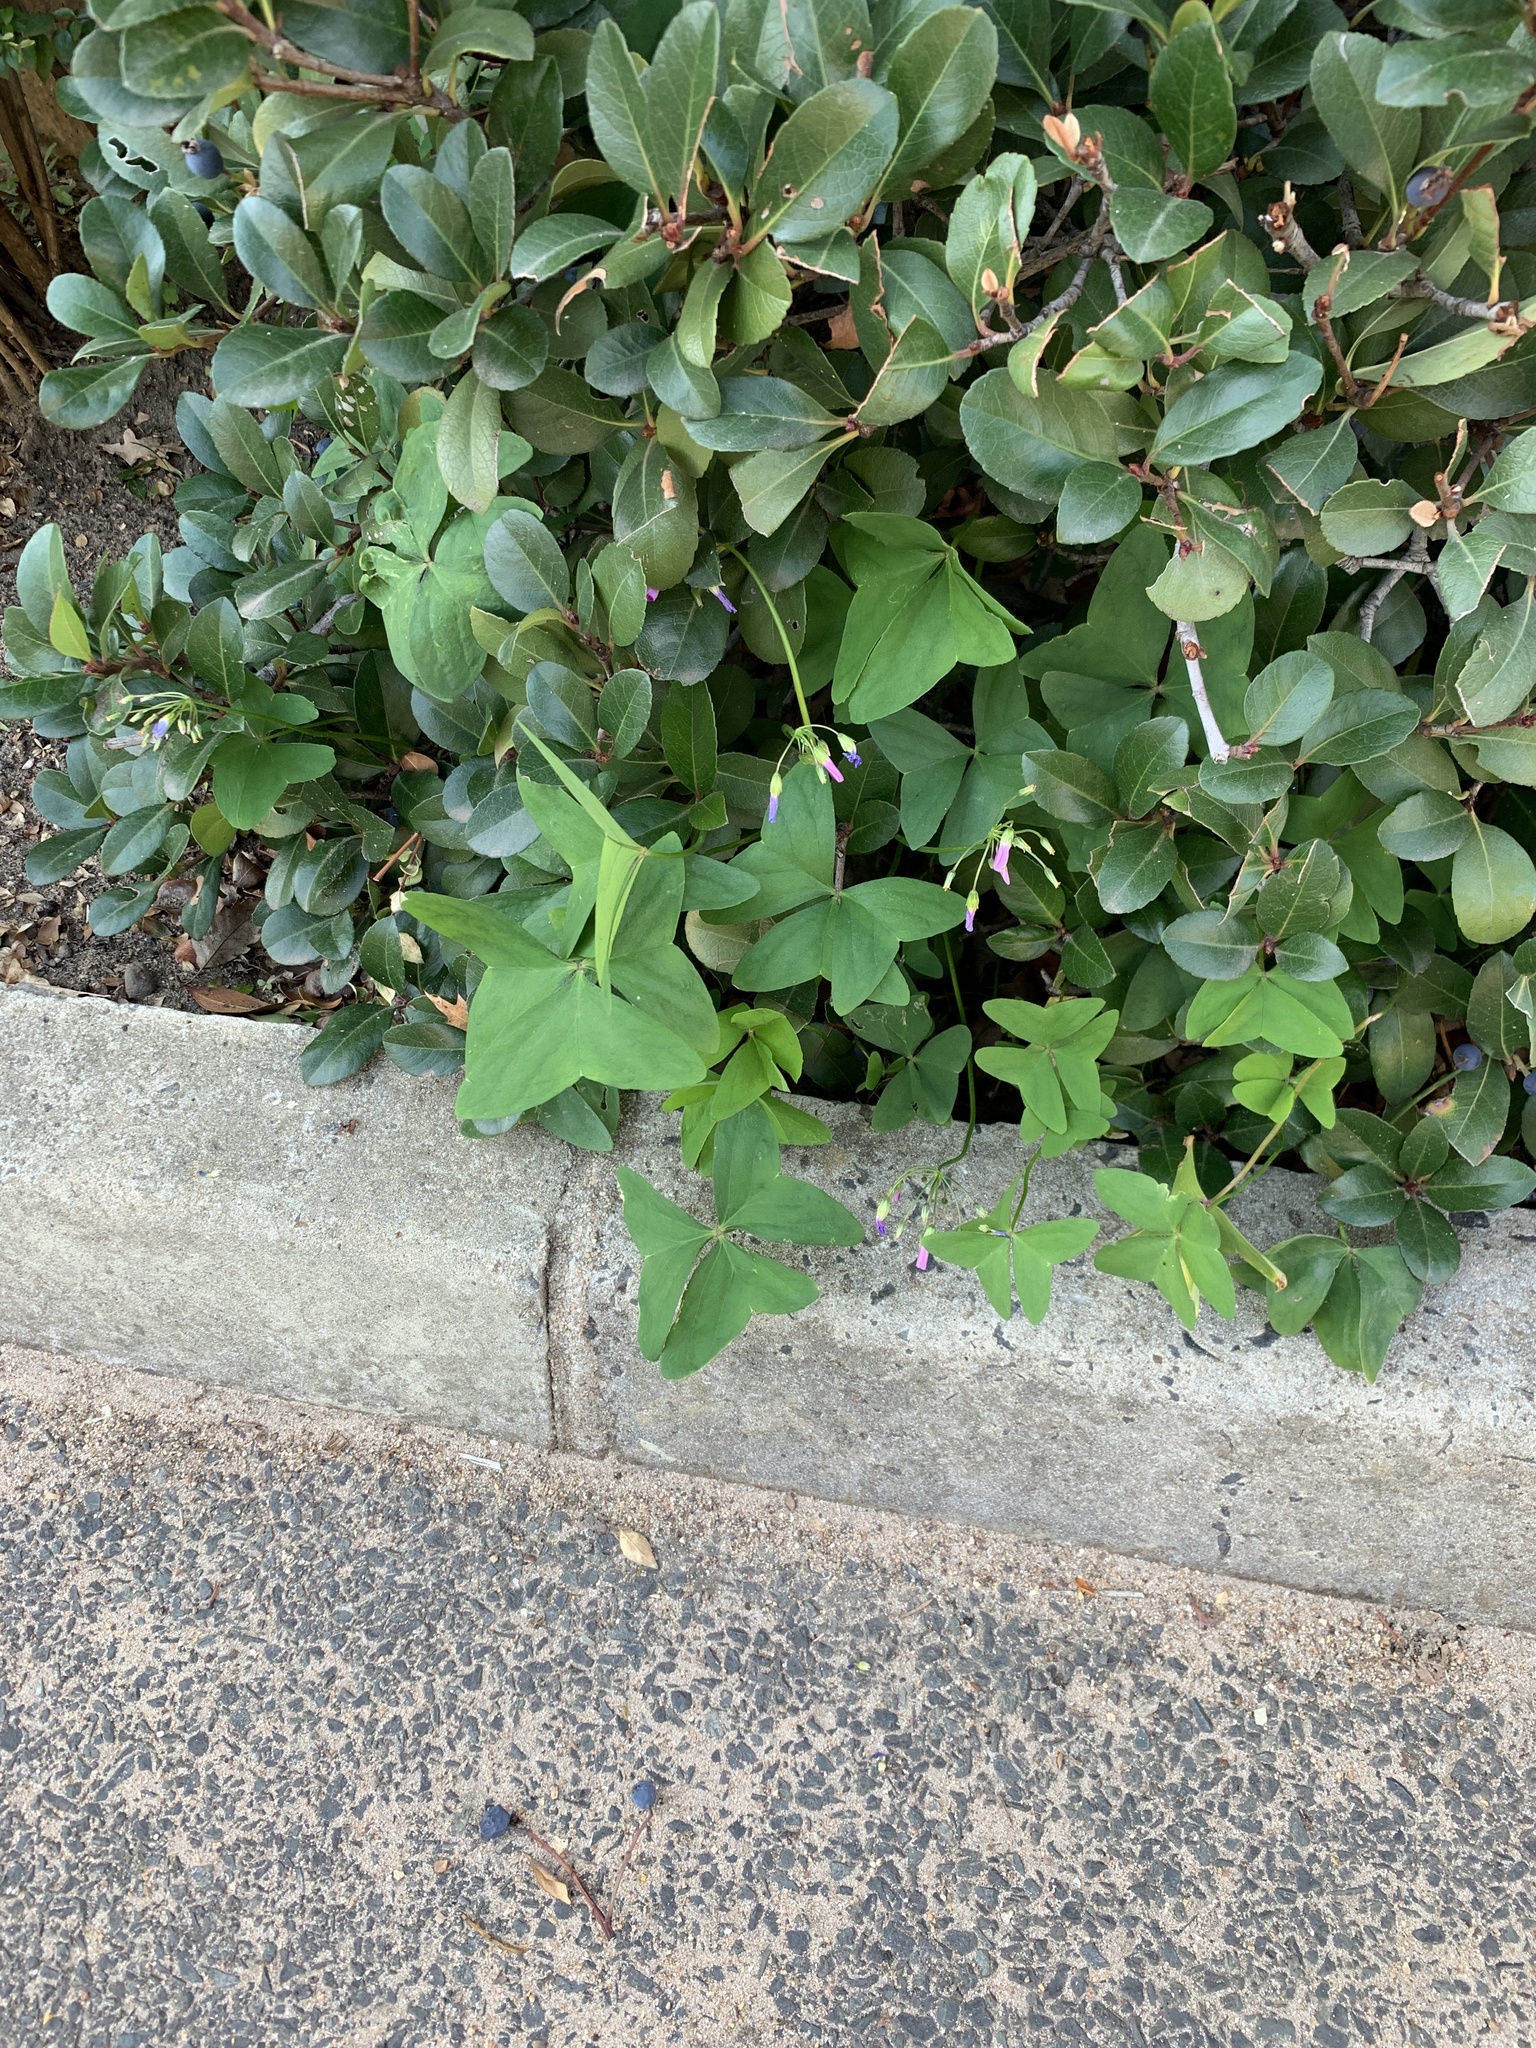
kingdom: Plantae
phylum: Tracheophyta
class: Magnoliopsida
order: Oxalidales
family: Oxalidaceae
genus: Oxalis
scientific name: Oxalis latifolia
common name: Garden pink-sorrel
